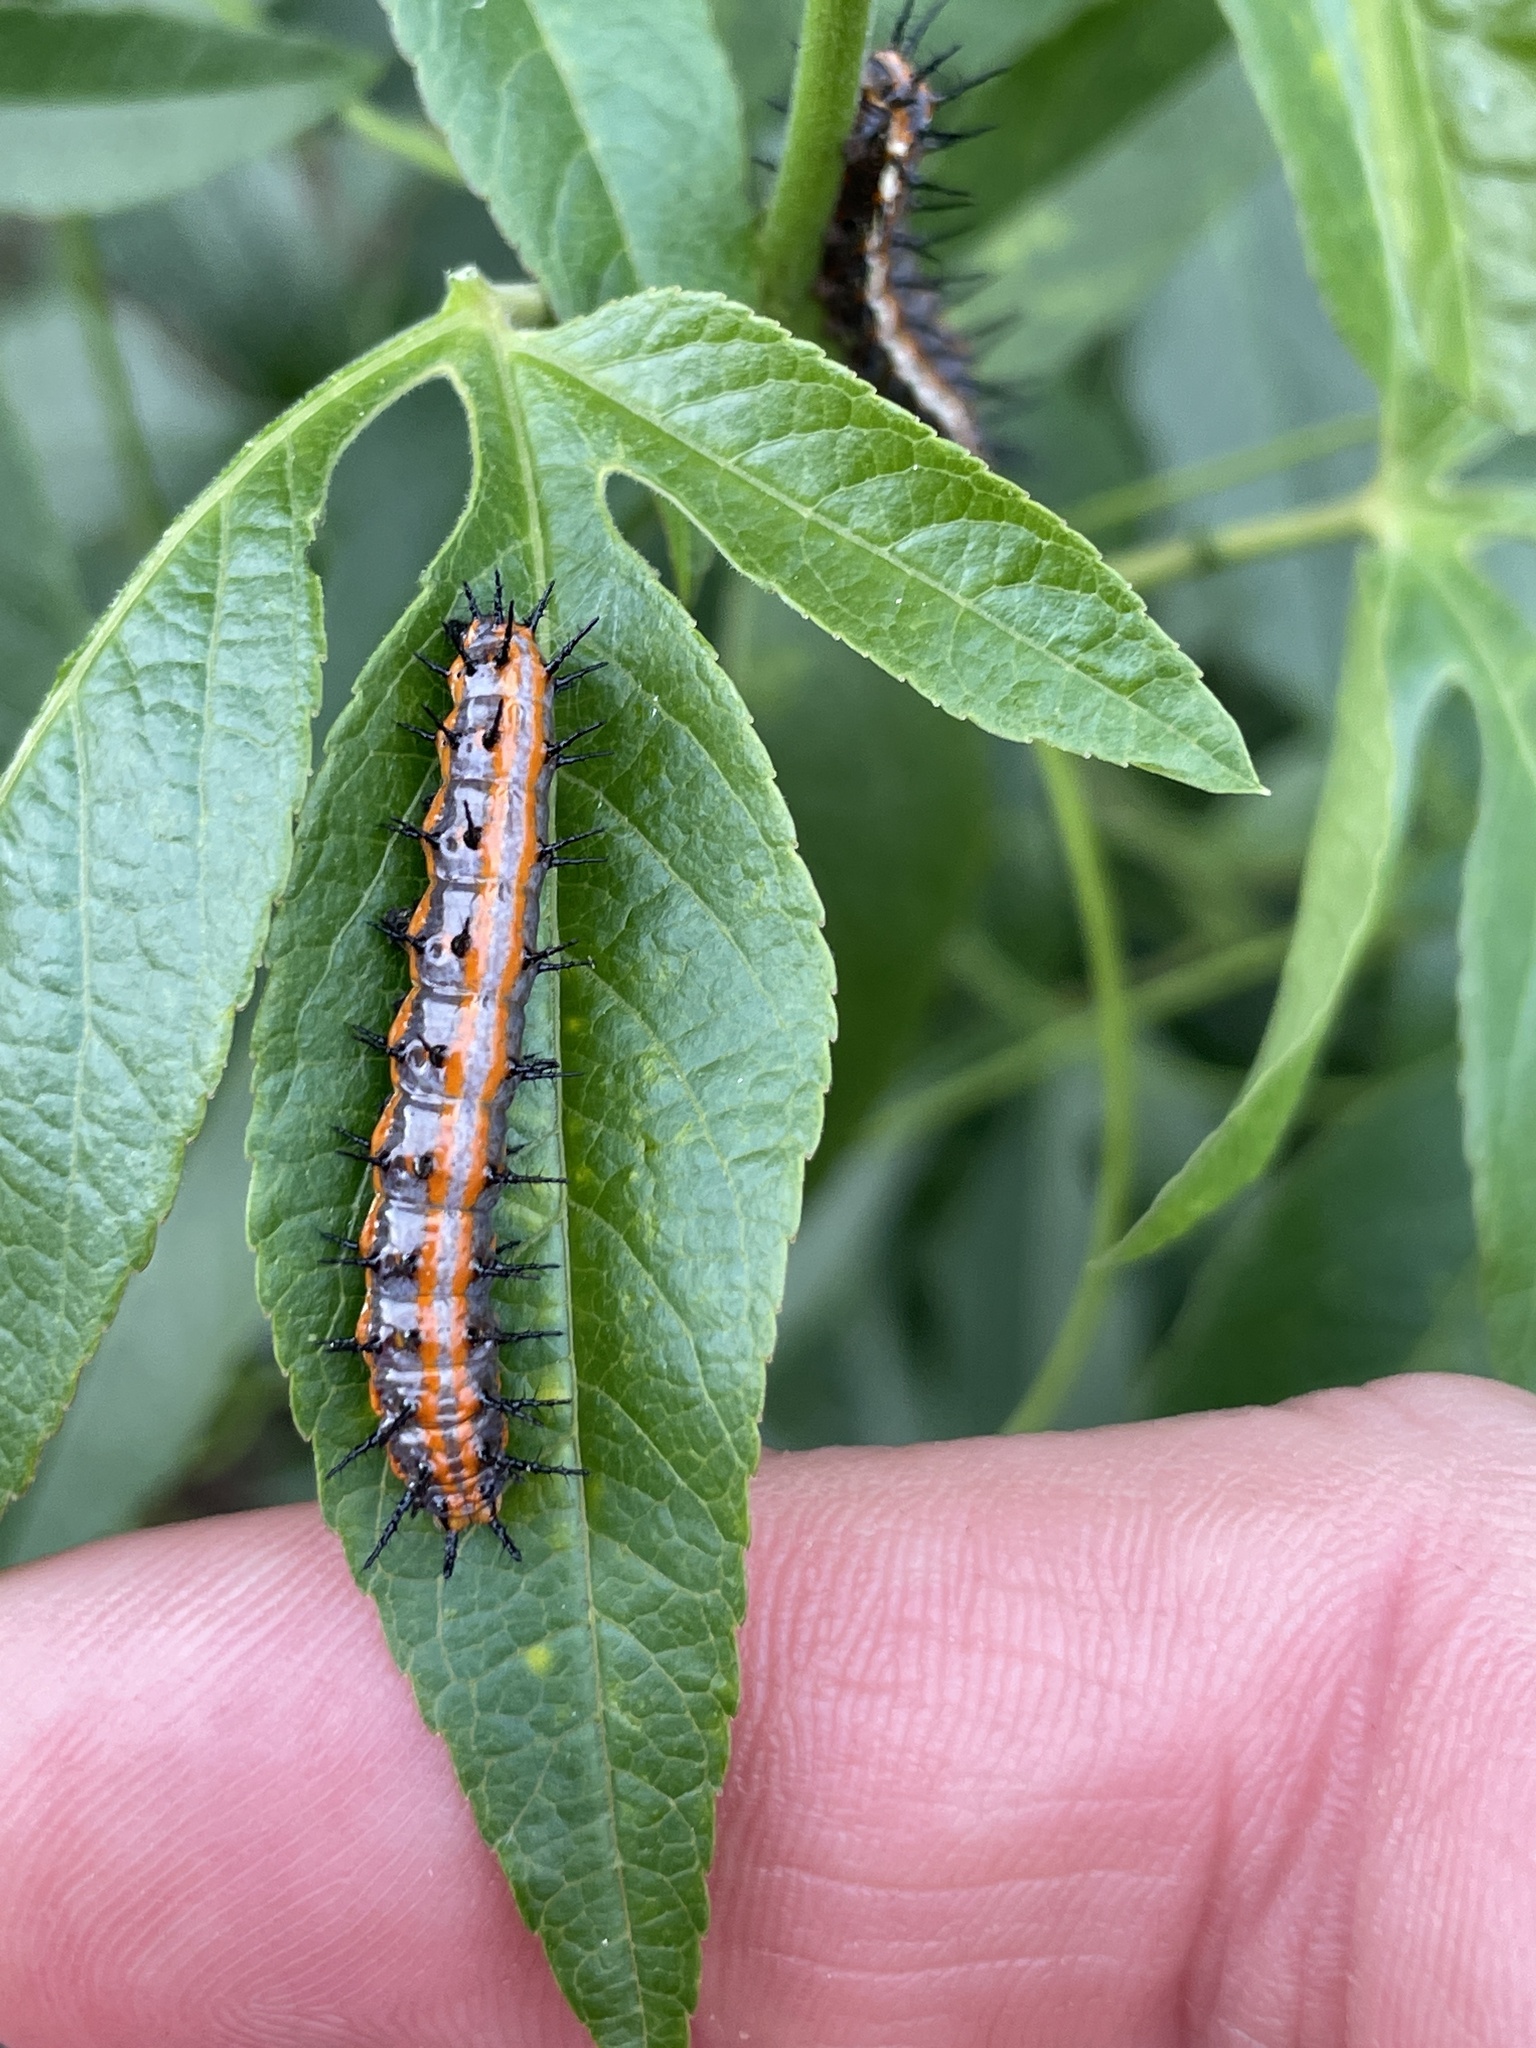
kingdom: Animalia
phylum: Arthropoda
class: Insecta
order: Lepidoptera
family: Nymphalidae
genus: Dione
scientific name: Dione vanillae
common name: Gulf fritillary
